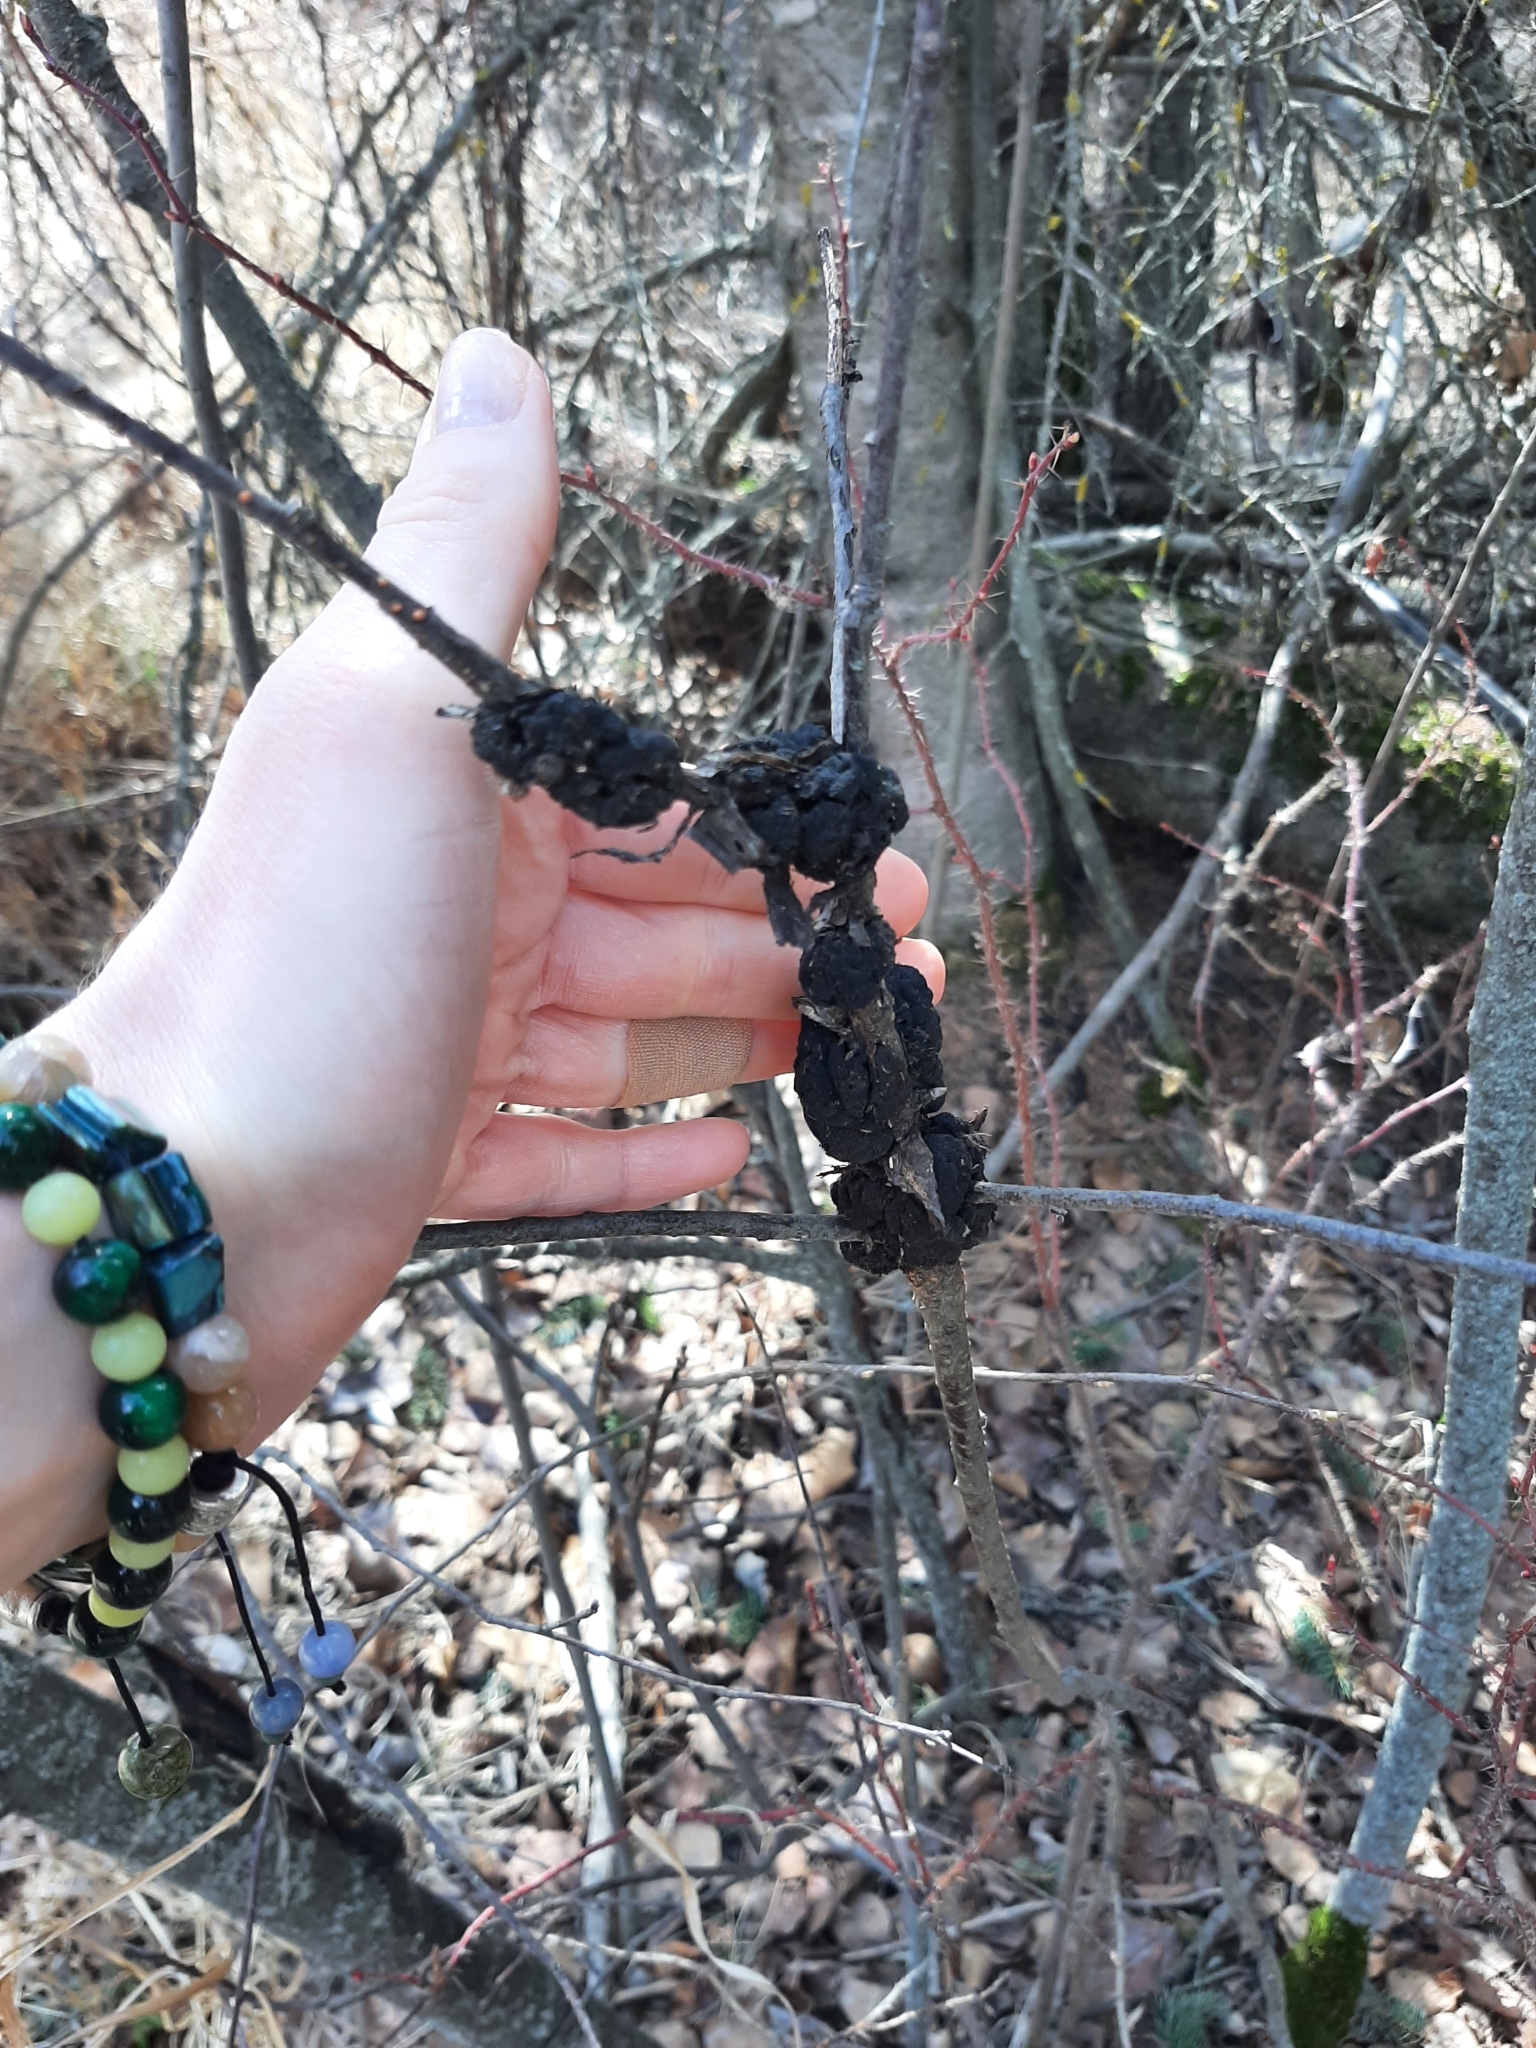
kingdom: Fungi
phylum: Ascomycota
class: Dothideomycetes
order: Venturiales
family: Venturiaceae
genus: Apiosporina
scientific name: Apiosporina morbosa
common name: Black knot
